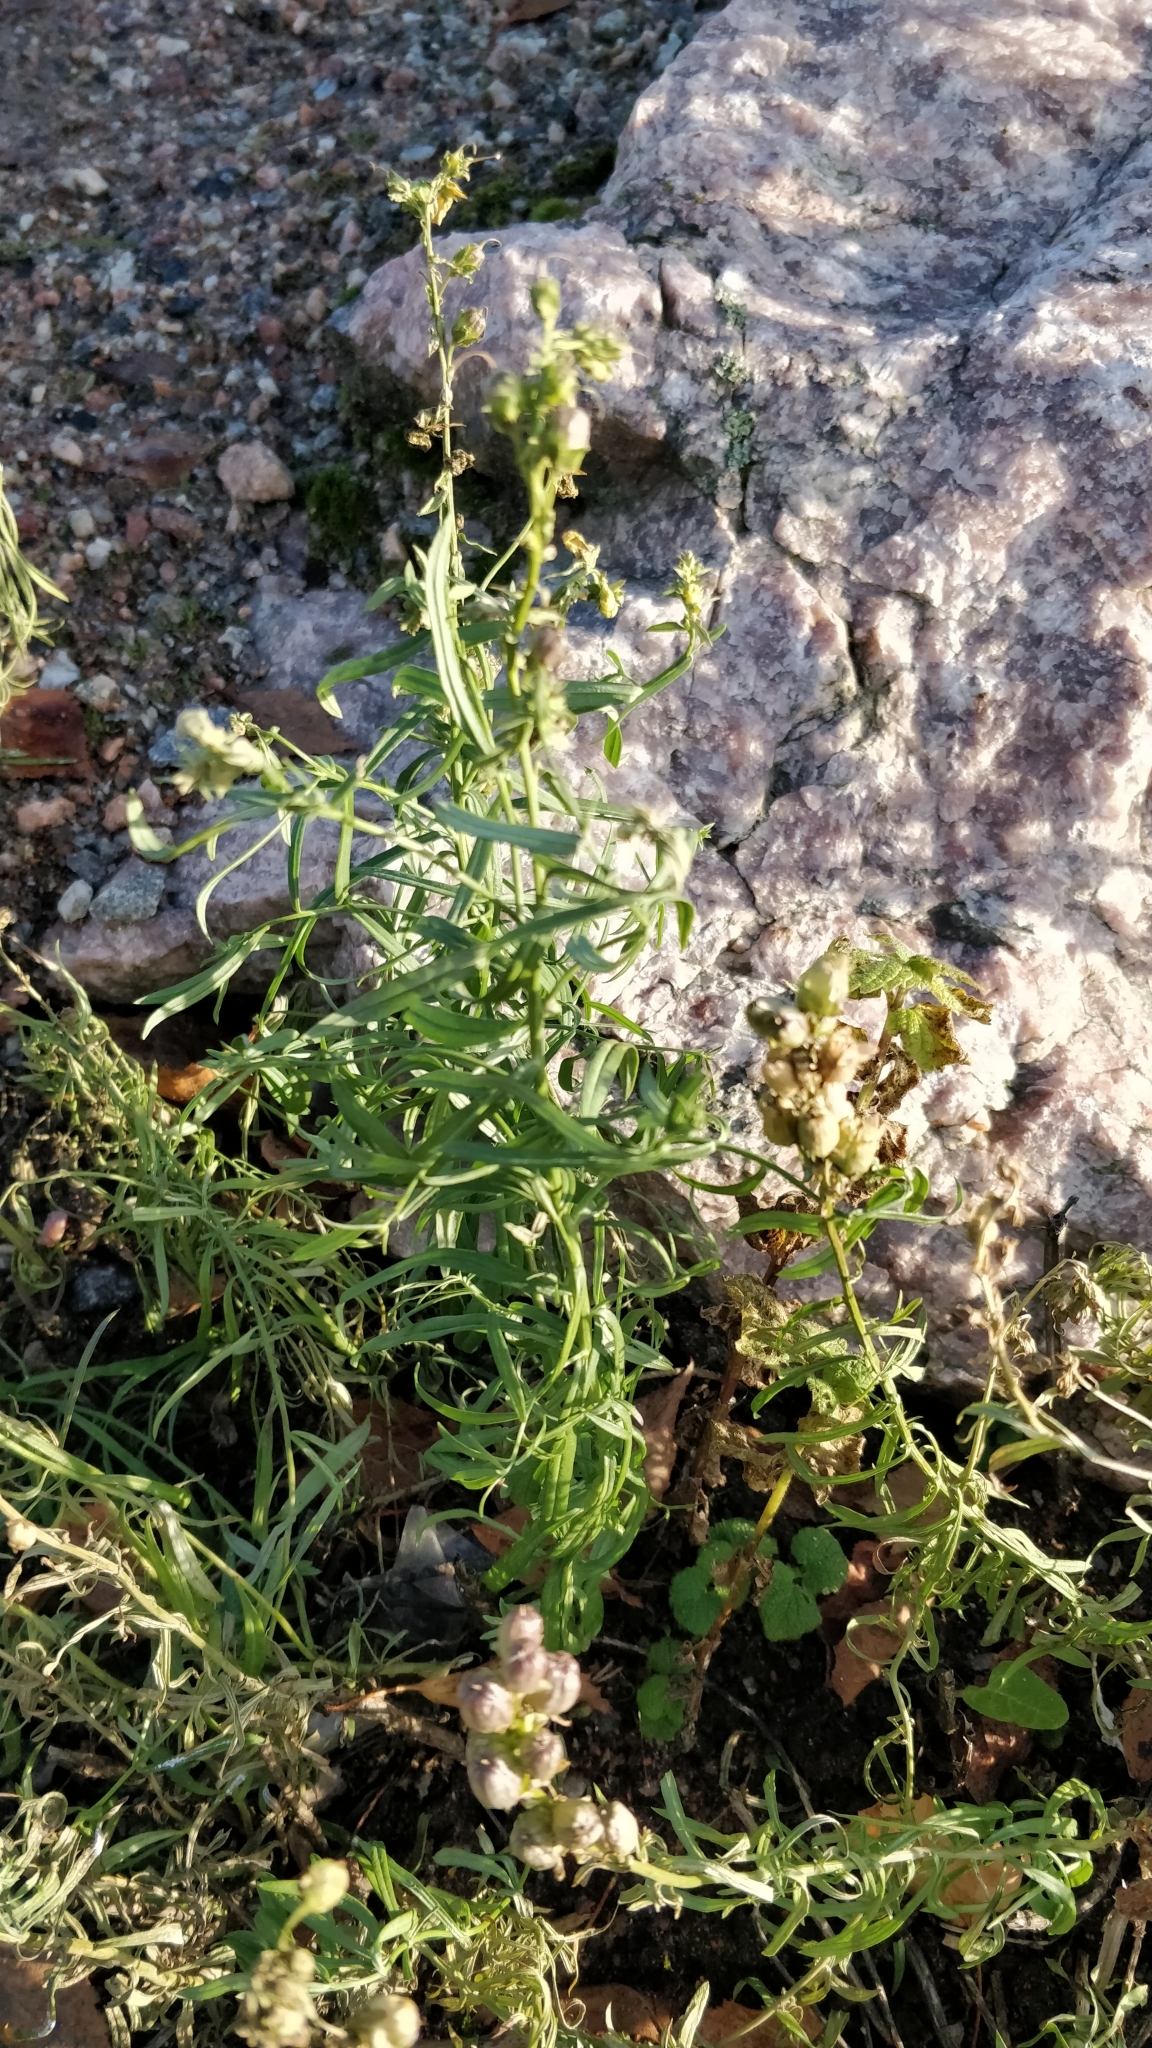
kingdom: Plantae
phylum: Tracheophyta
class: Magnoliopsida
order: Lamiales
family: Plantaginaceae
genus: Linaria
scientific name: Linaria vulgaris
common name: Butter and eggs
